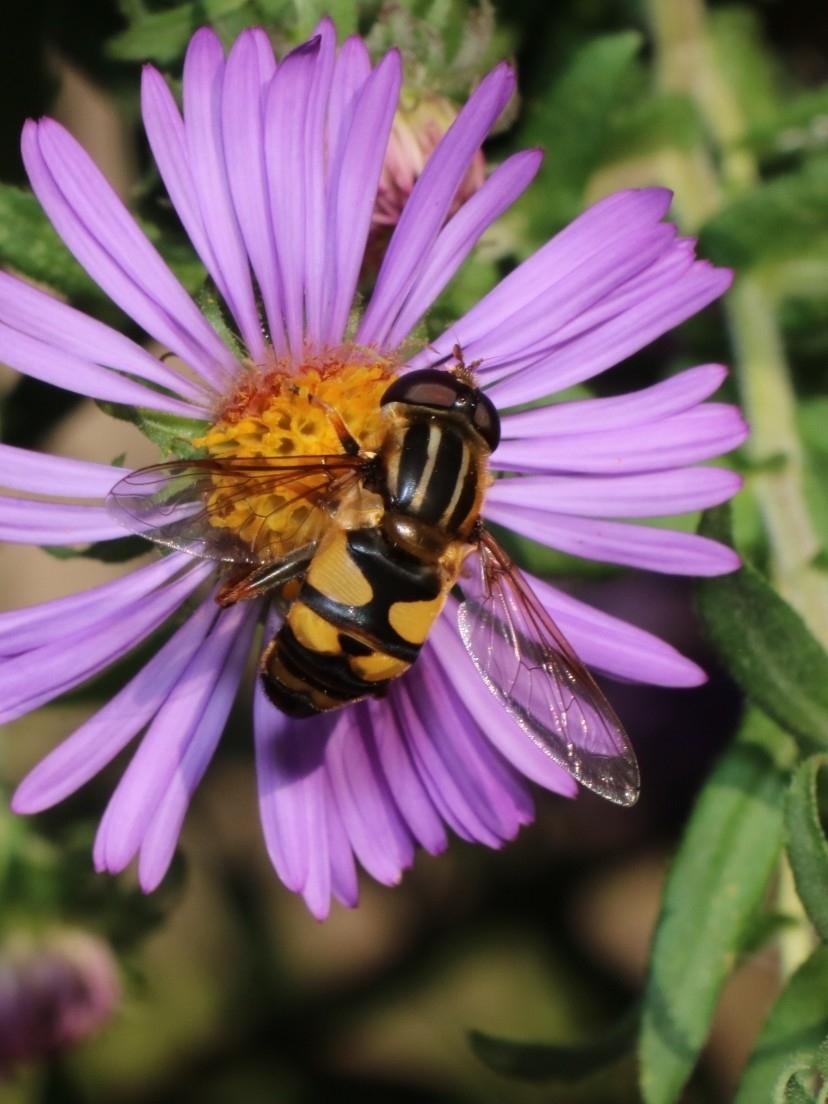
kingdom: Animalia
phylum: Arthropoda
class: Insecta
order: Diptera
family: Syrphidae
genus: Helophilus
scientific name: Helophilus fasciatus
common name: Narrow-headed marsh fly
